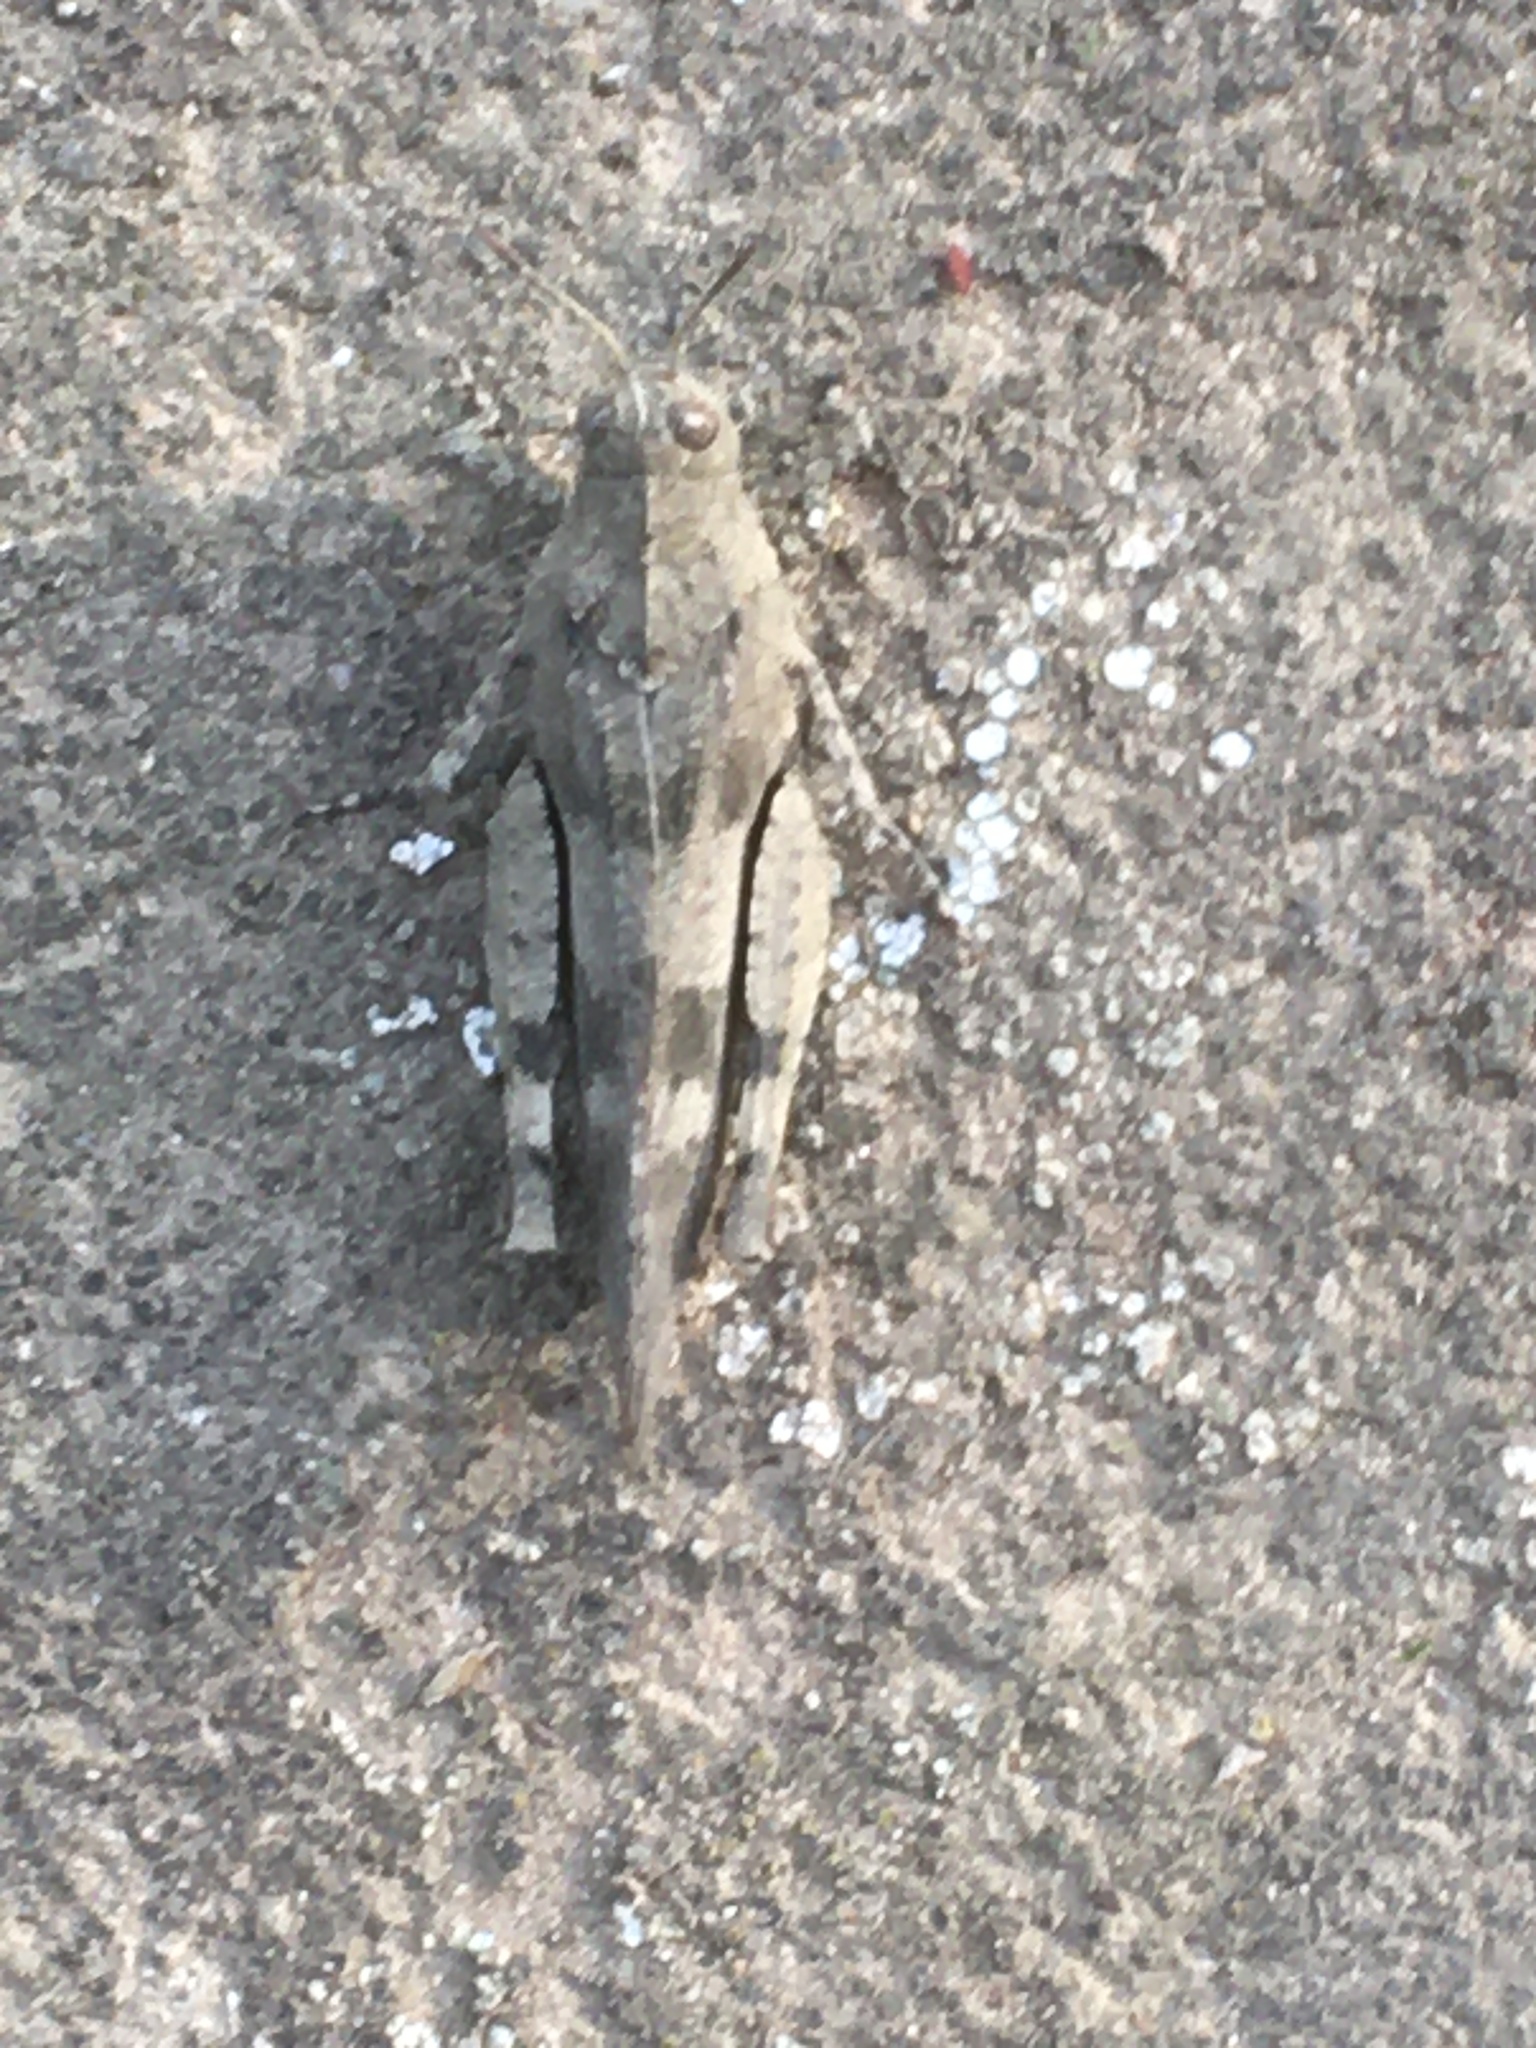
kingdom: Animalia
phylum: Arthropoda
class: Insecta
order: Orthoptera
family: Acrididae
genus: Oedipoda
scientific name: Oedipoda caerulescens
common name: Blue-winged grasshopper
